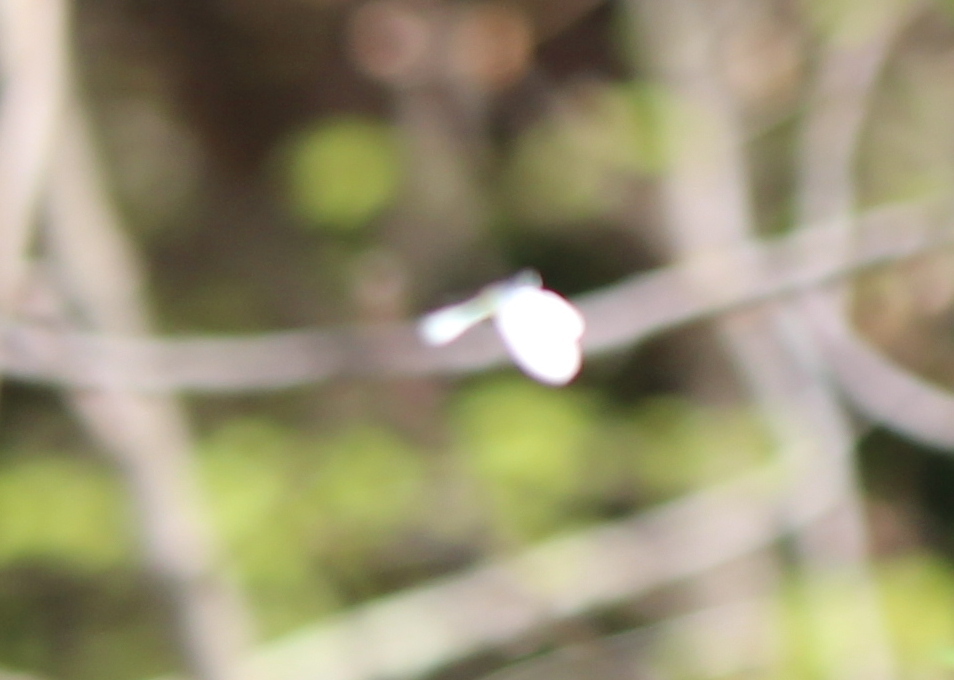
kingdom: Animalia
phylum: Arthropoda
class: Insecta
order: Lepidoptera
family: Pieridae
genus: Pieris
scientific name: Pieris rapae
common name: Small white
